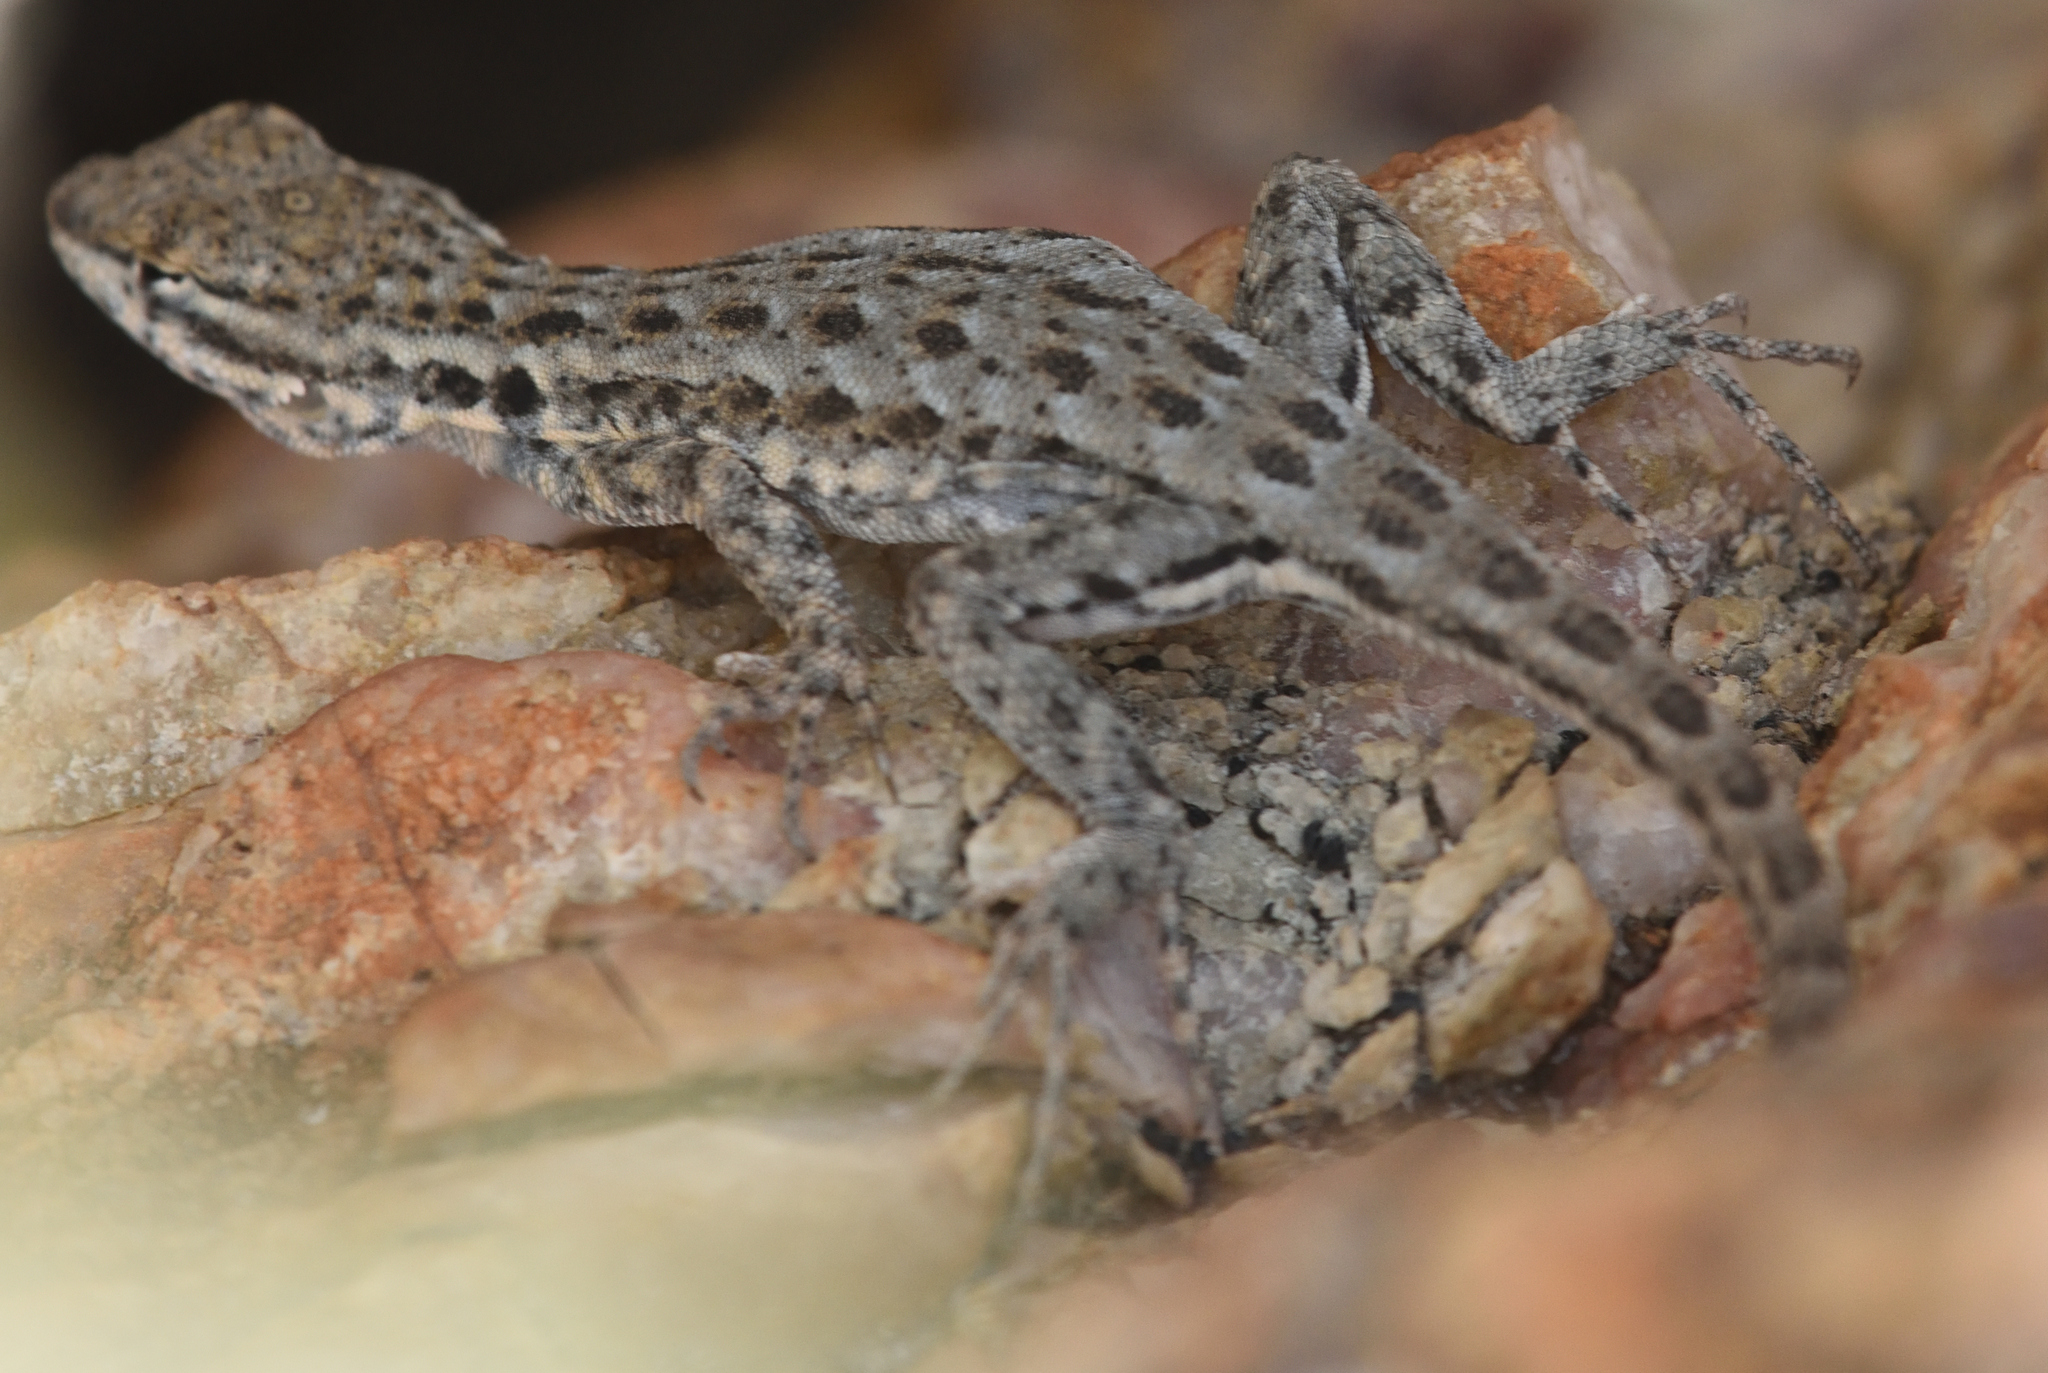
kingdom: Animalia
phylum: Chordata
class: Squamata
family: Phrynosomatidae
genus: Uta
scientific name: Uta stansburiana
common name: Side-blotched lizard
